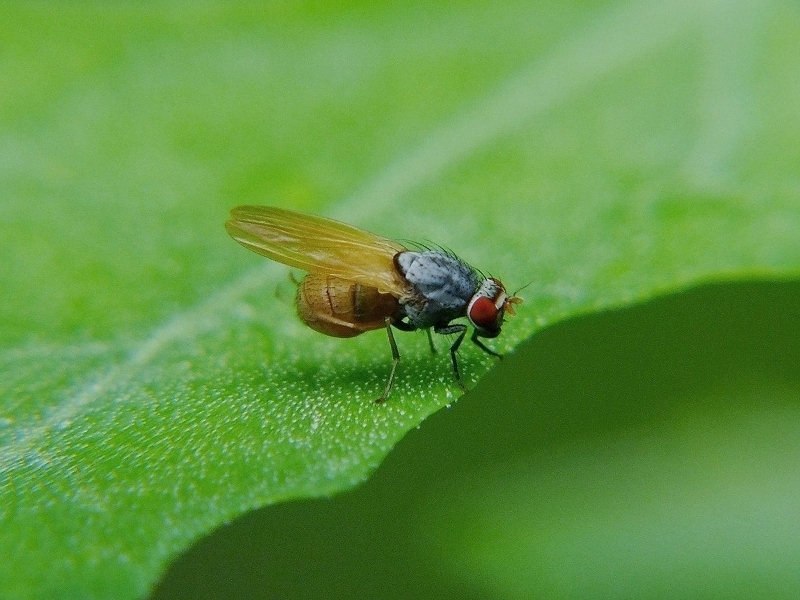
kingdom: Animalia
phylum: Arthropoda
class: Insecta
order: Diptera
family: Lauxaniidae
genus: Minettia
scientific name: Minettia lupulina
